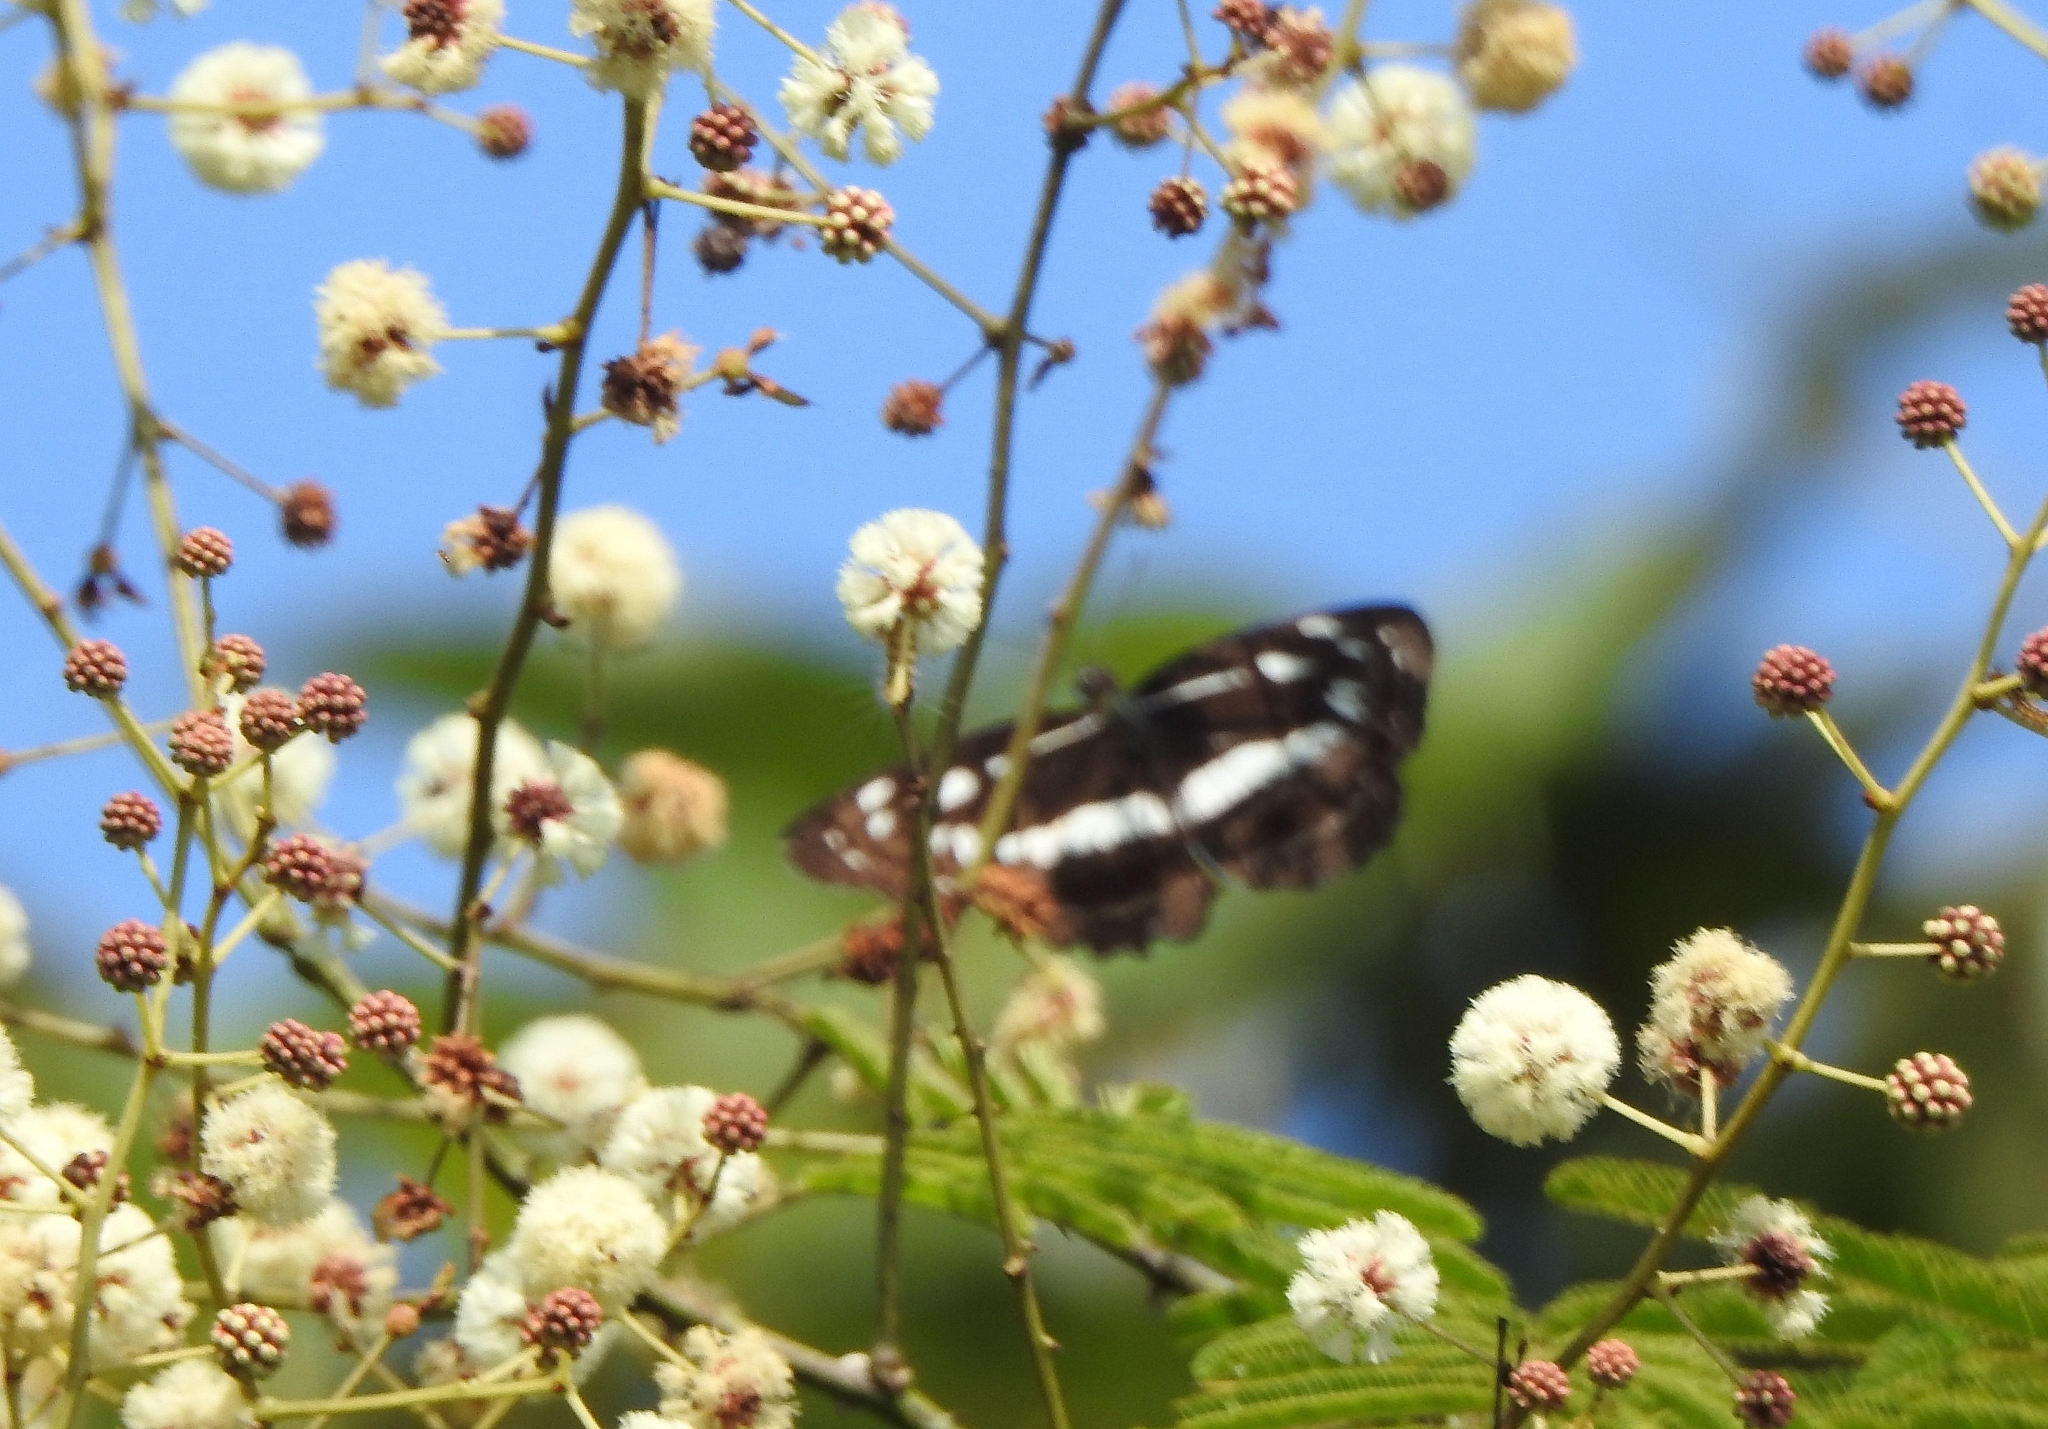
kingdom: Animalia
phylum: Arthropoda
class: Insecta
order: Lepidoptera
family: Nymphalidae
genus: Neptis
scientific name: Neptis jumbah
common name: Chestnut-streaked sailer
